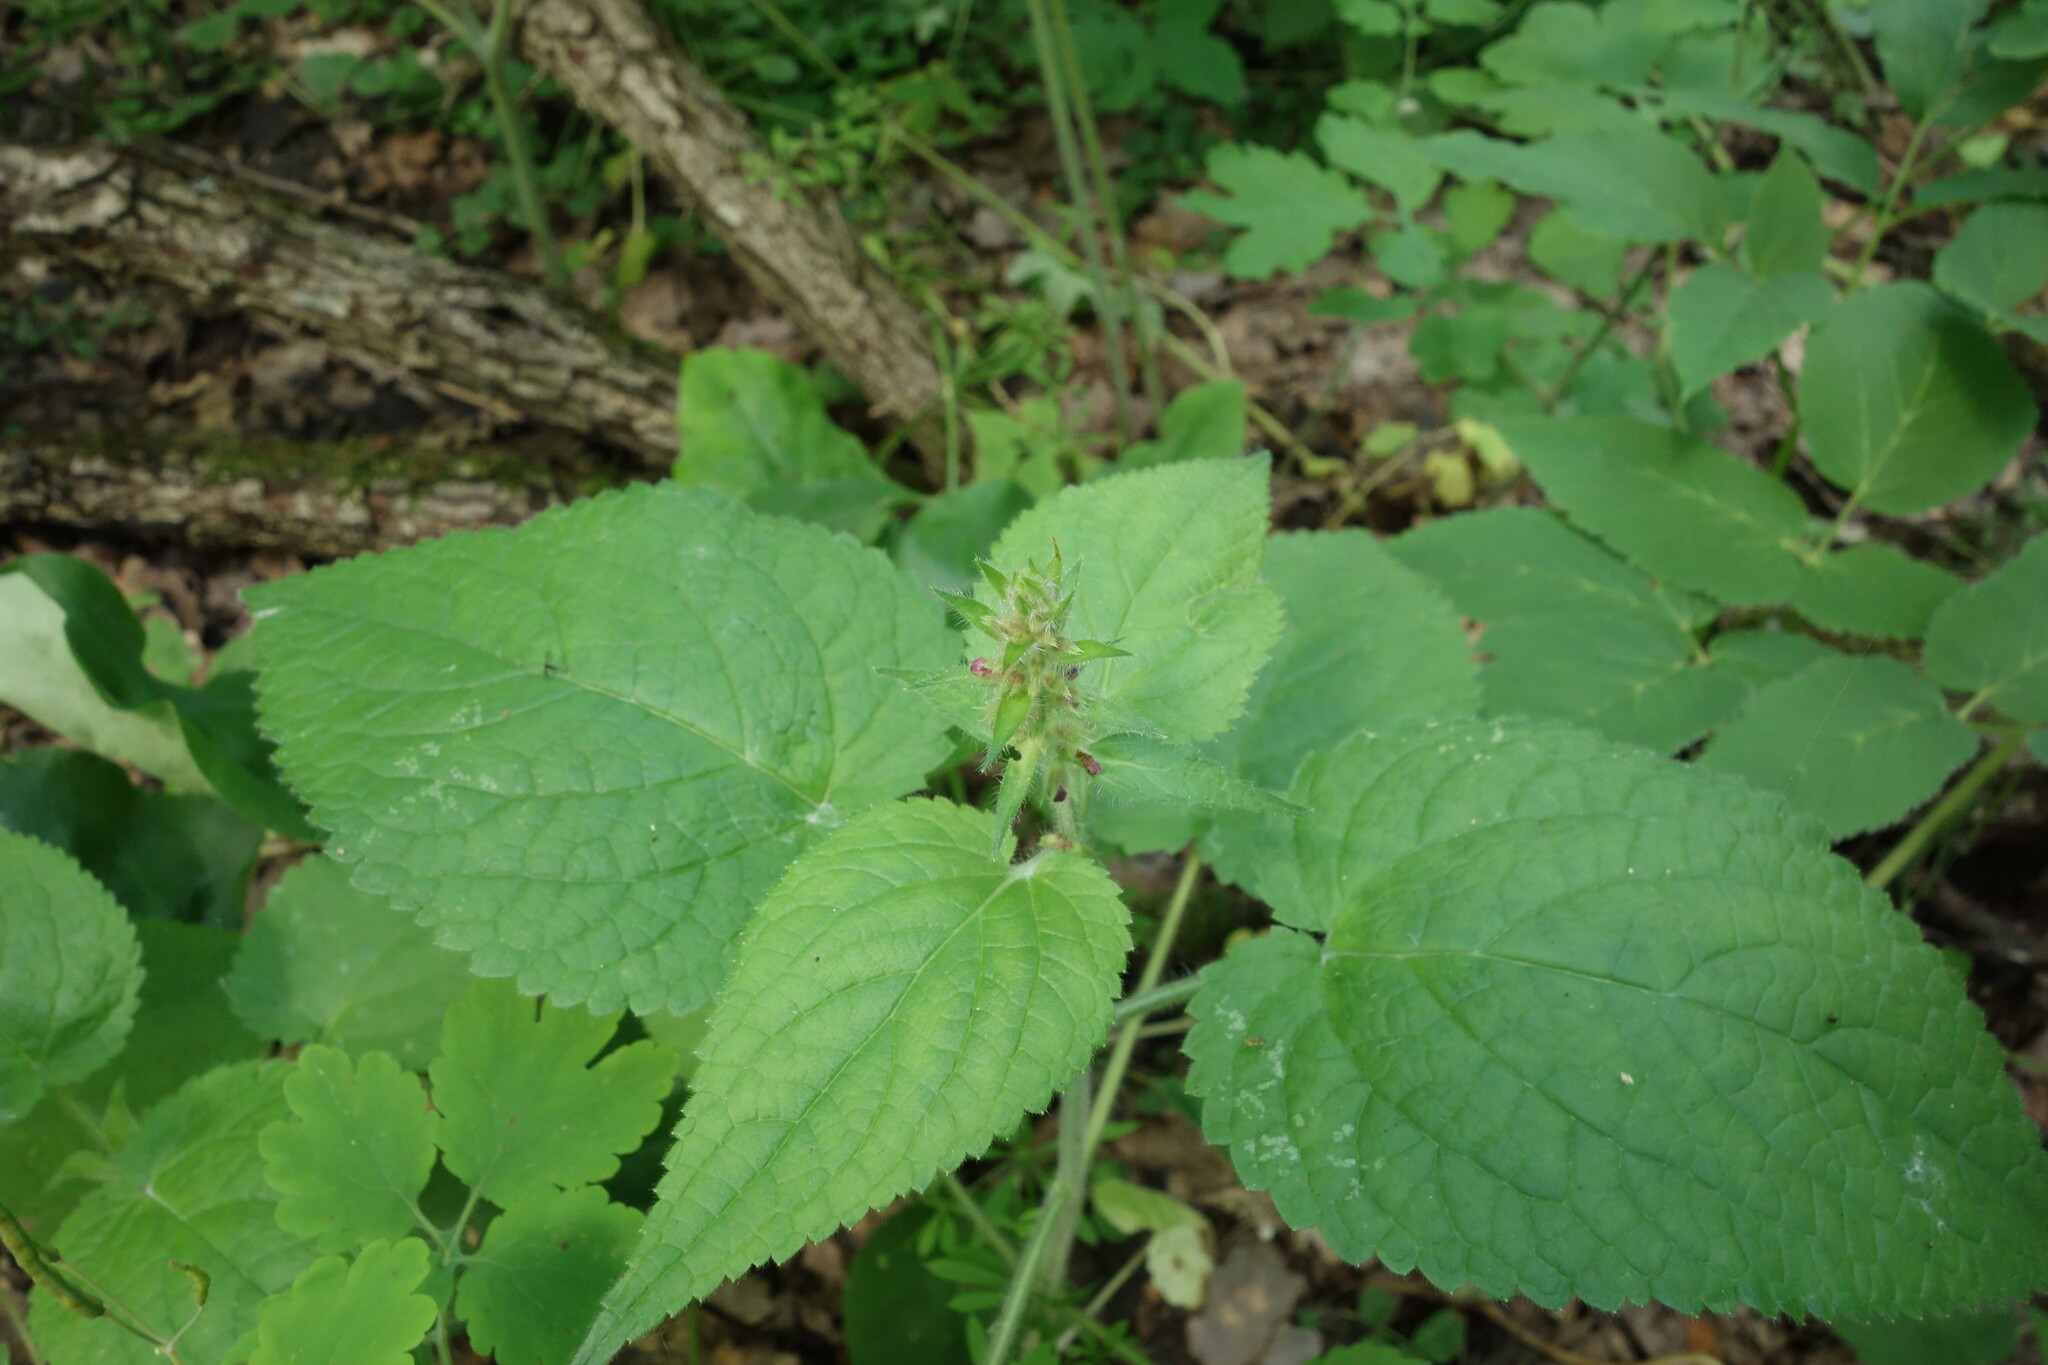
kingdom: Plantae
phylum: Tracheophyta
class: Magnoliopsida
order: Lamiales
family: Lamiaceae
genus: Stachys
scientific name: Stachys sylvatica
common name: Hedge woundwort
